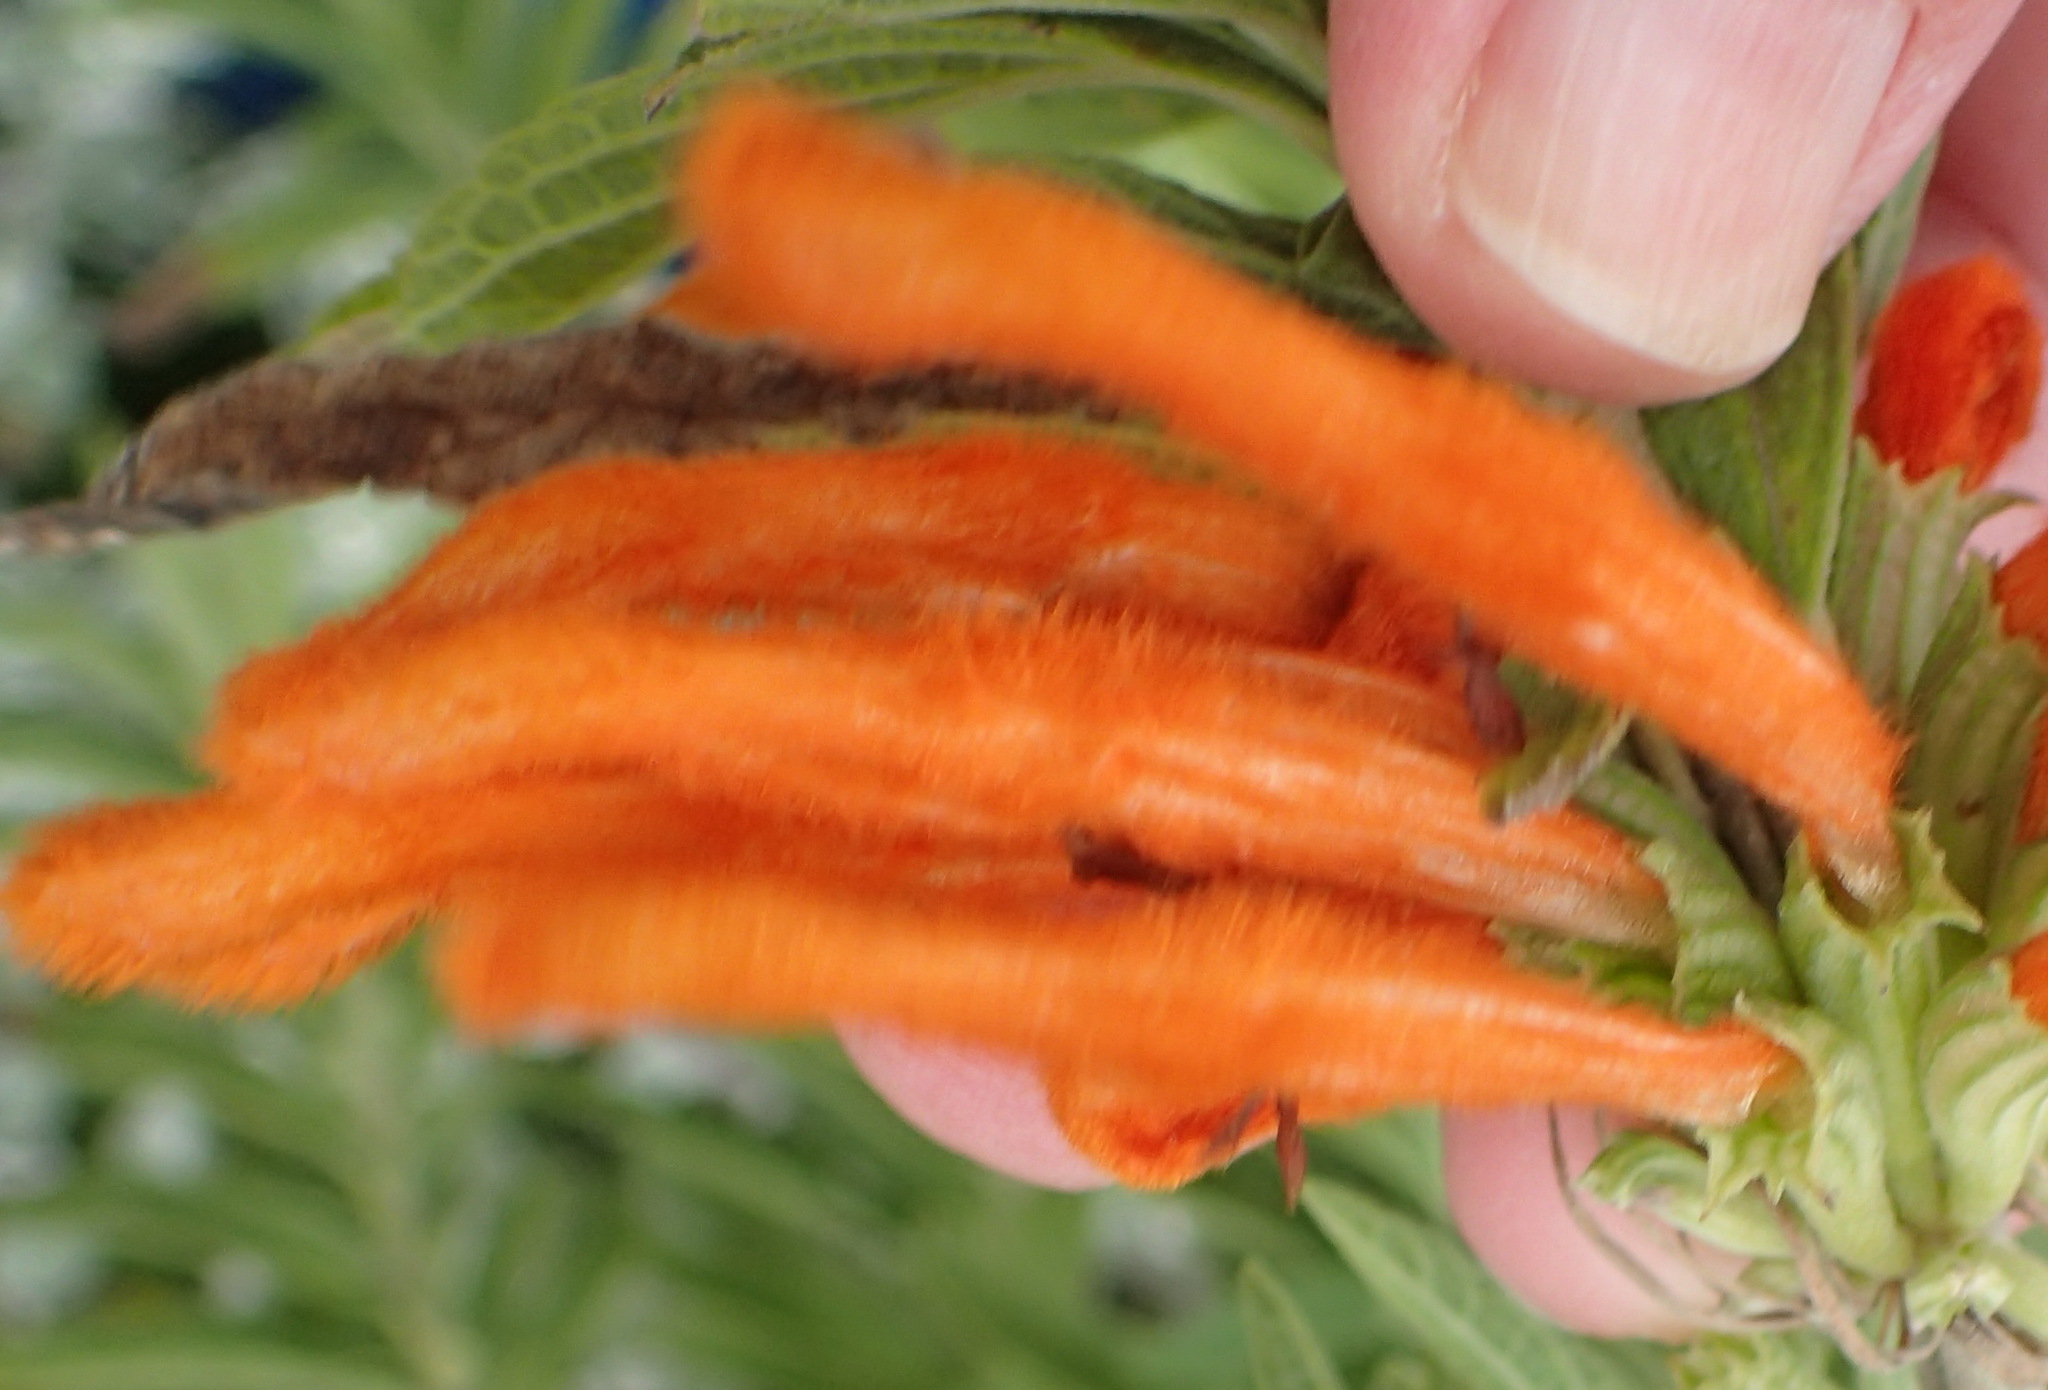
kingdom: Plantae
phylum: Tracheophyta
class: Magnoliopsida
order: Lamiales
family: Lamiaceae
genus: Leonotis
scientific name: Leonotis leonurus
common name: Lion's ear
